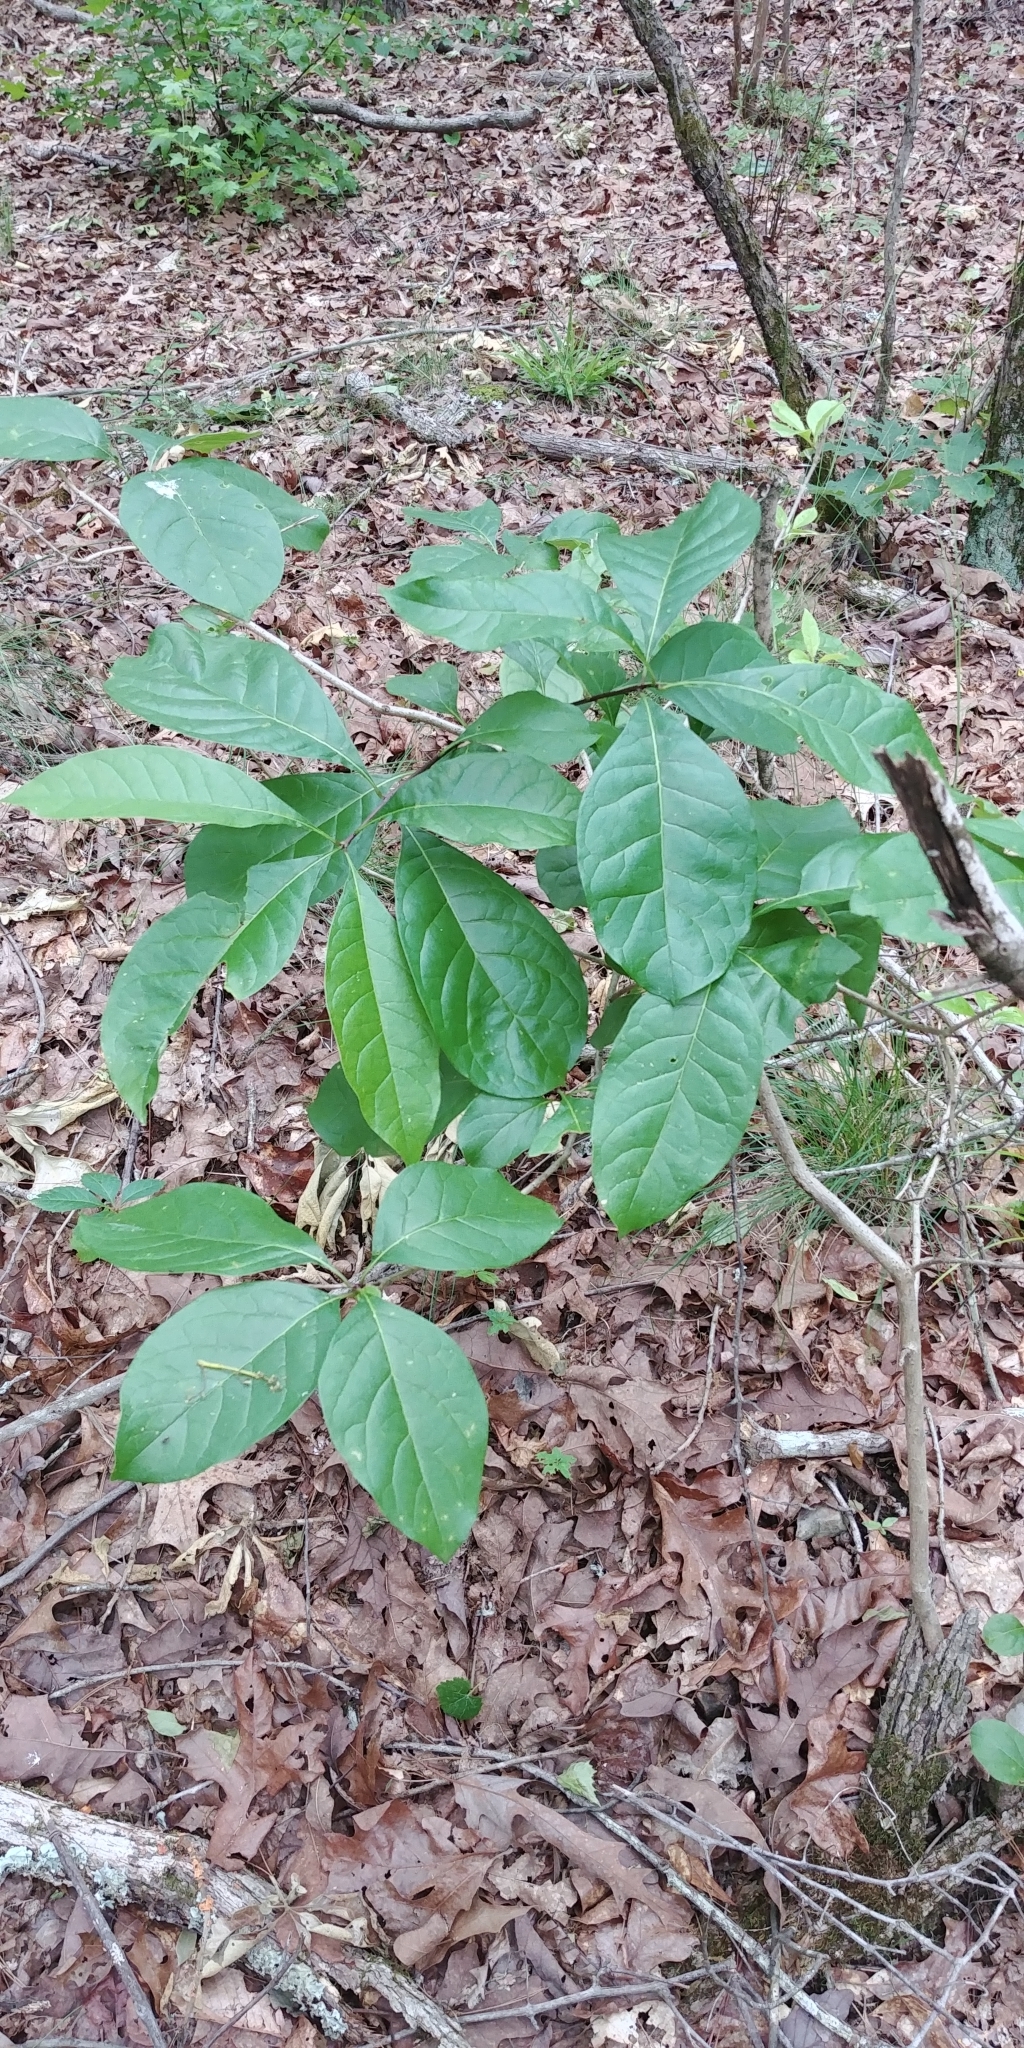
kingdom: Plantae
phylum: Tracheophyta
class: Magnoliopsida
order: Lamiales
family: Oleaceae
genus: Chionanthus
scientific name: Chionanthus virginicus
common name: American fringetree
